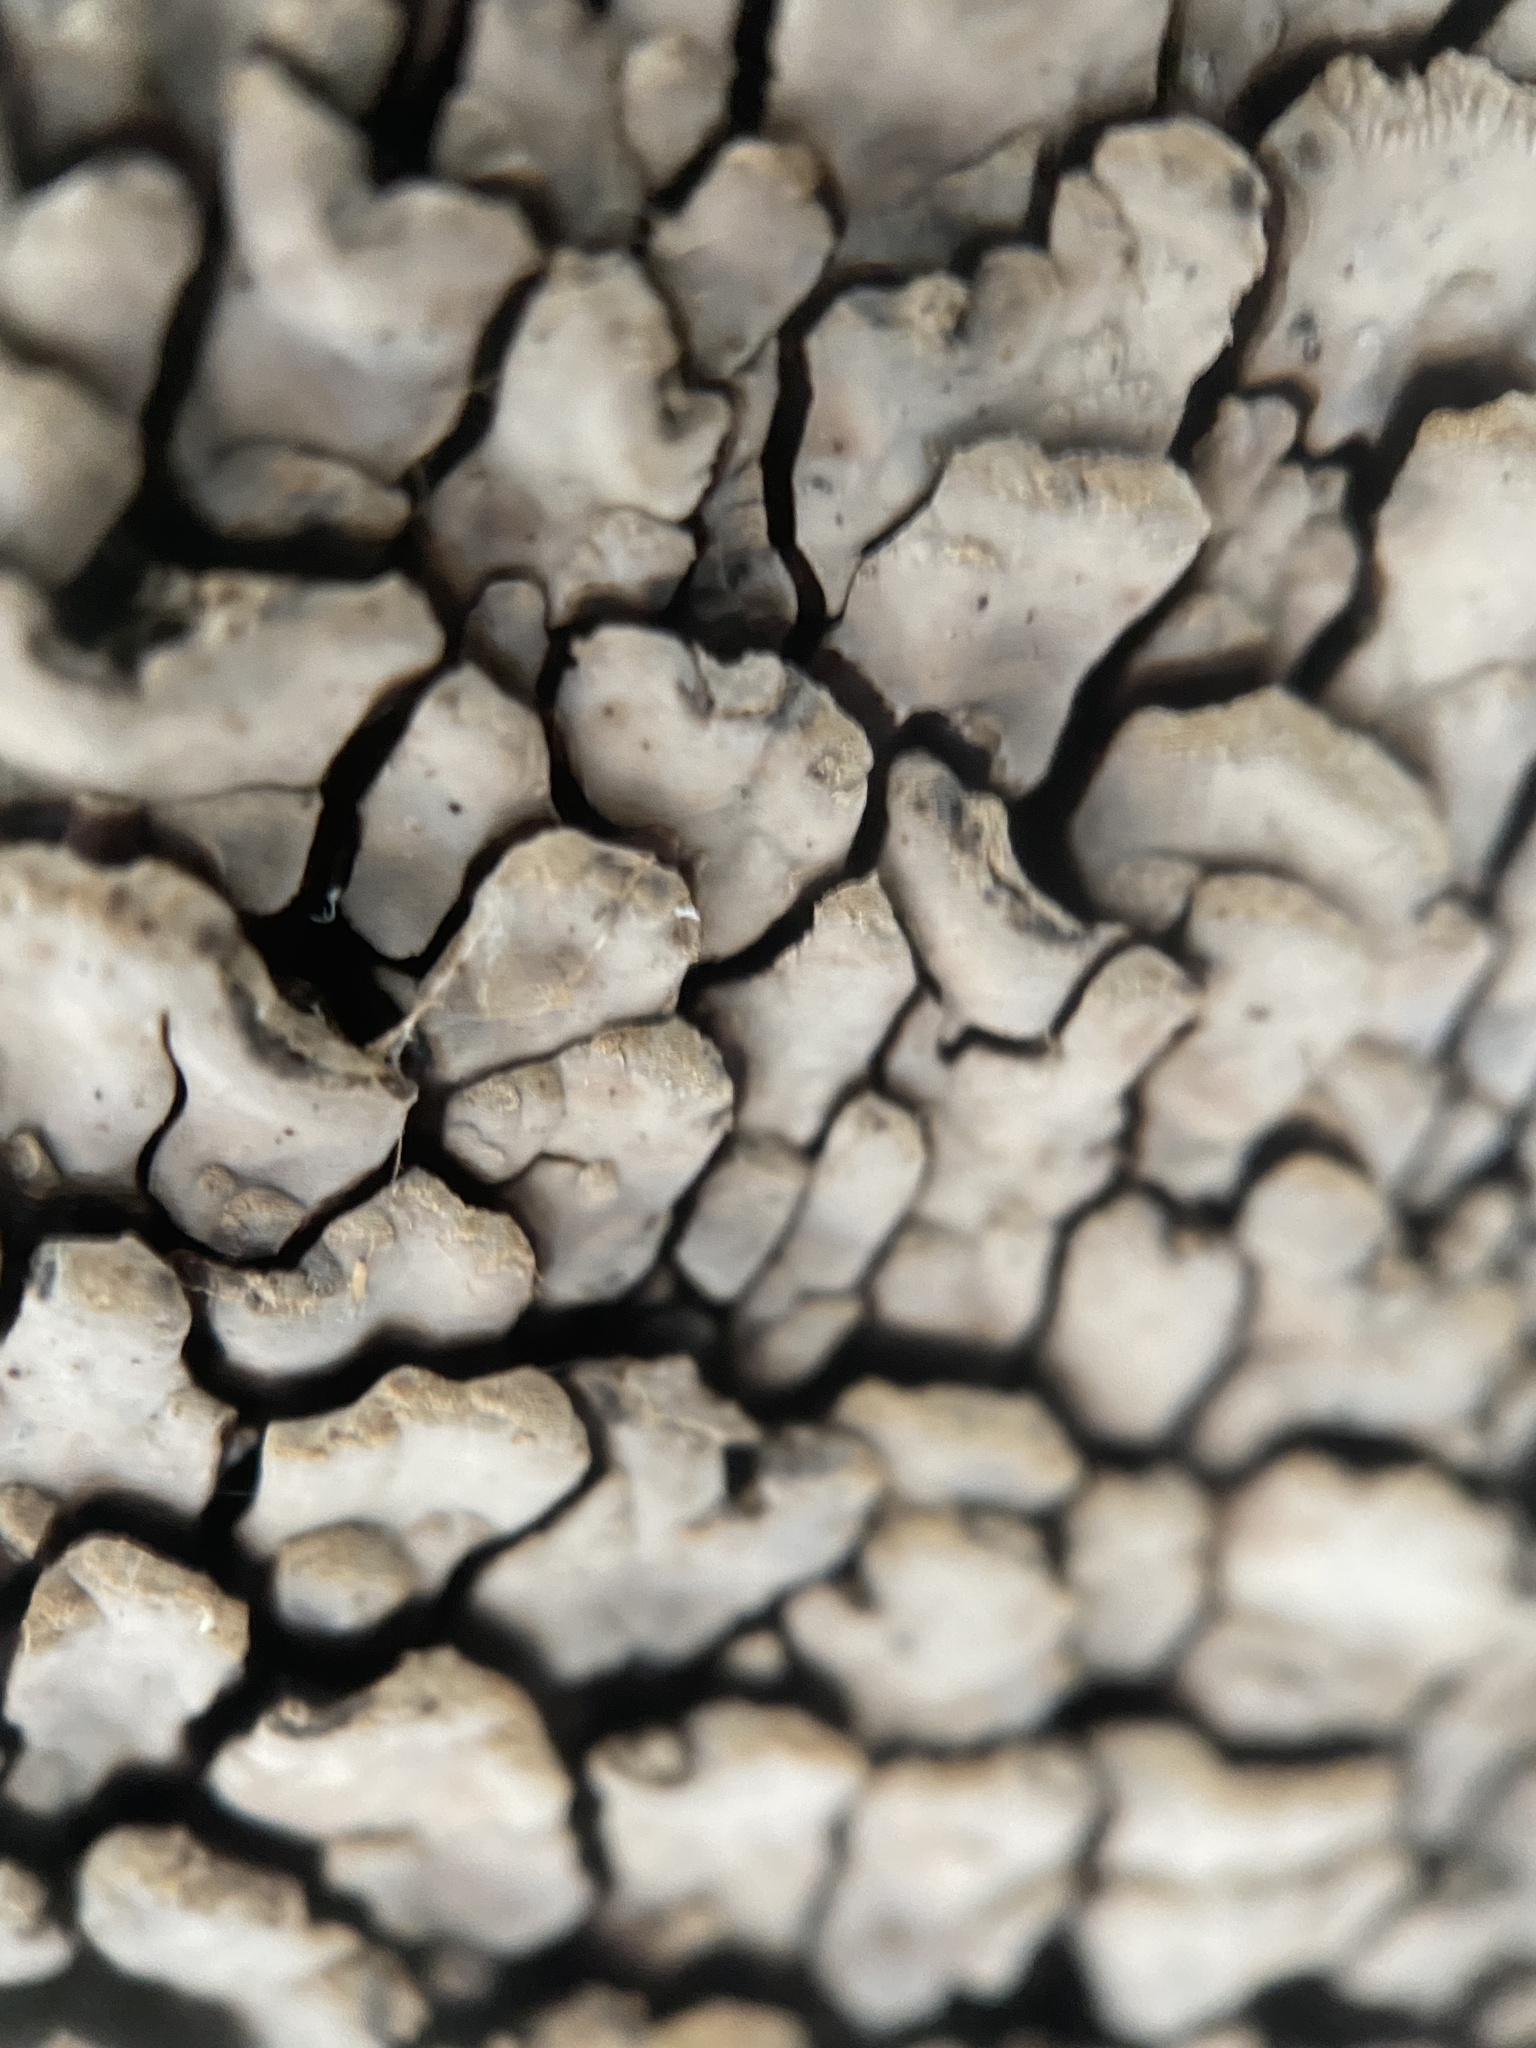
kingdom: Fungi
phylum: Basidiomycota
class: Agaricomycetes
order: Russulales
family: Stereaceae
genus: Xylobolus
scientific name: Xylobolus frustulatus
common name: Ceramic parchment
